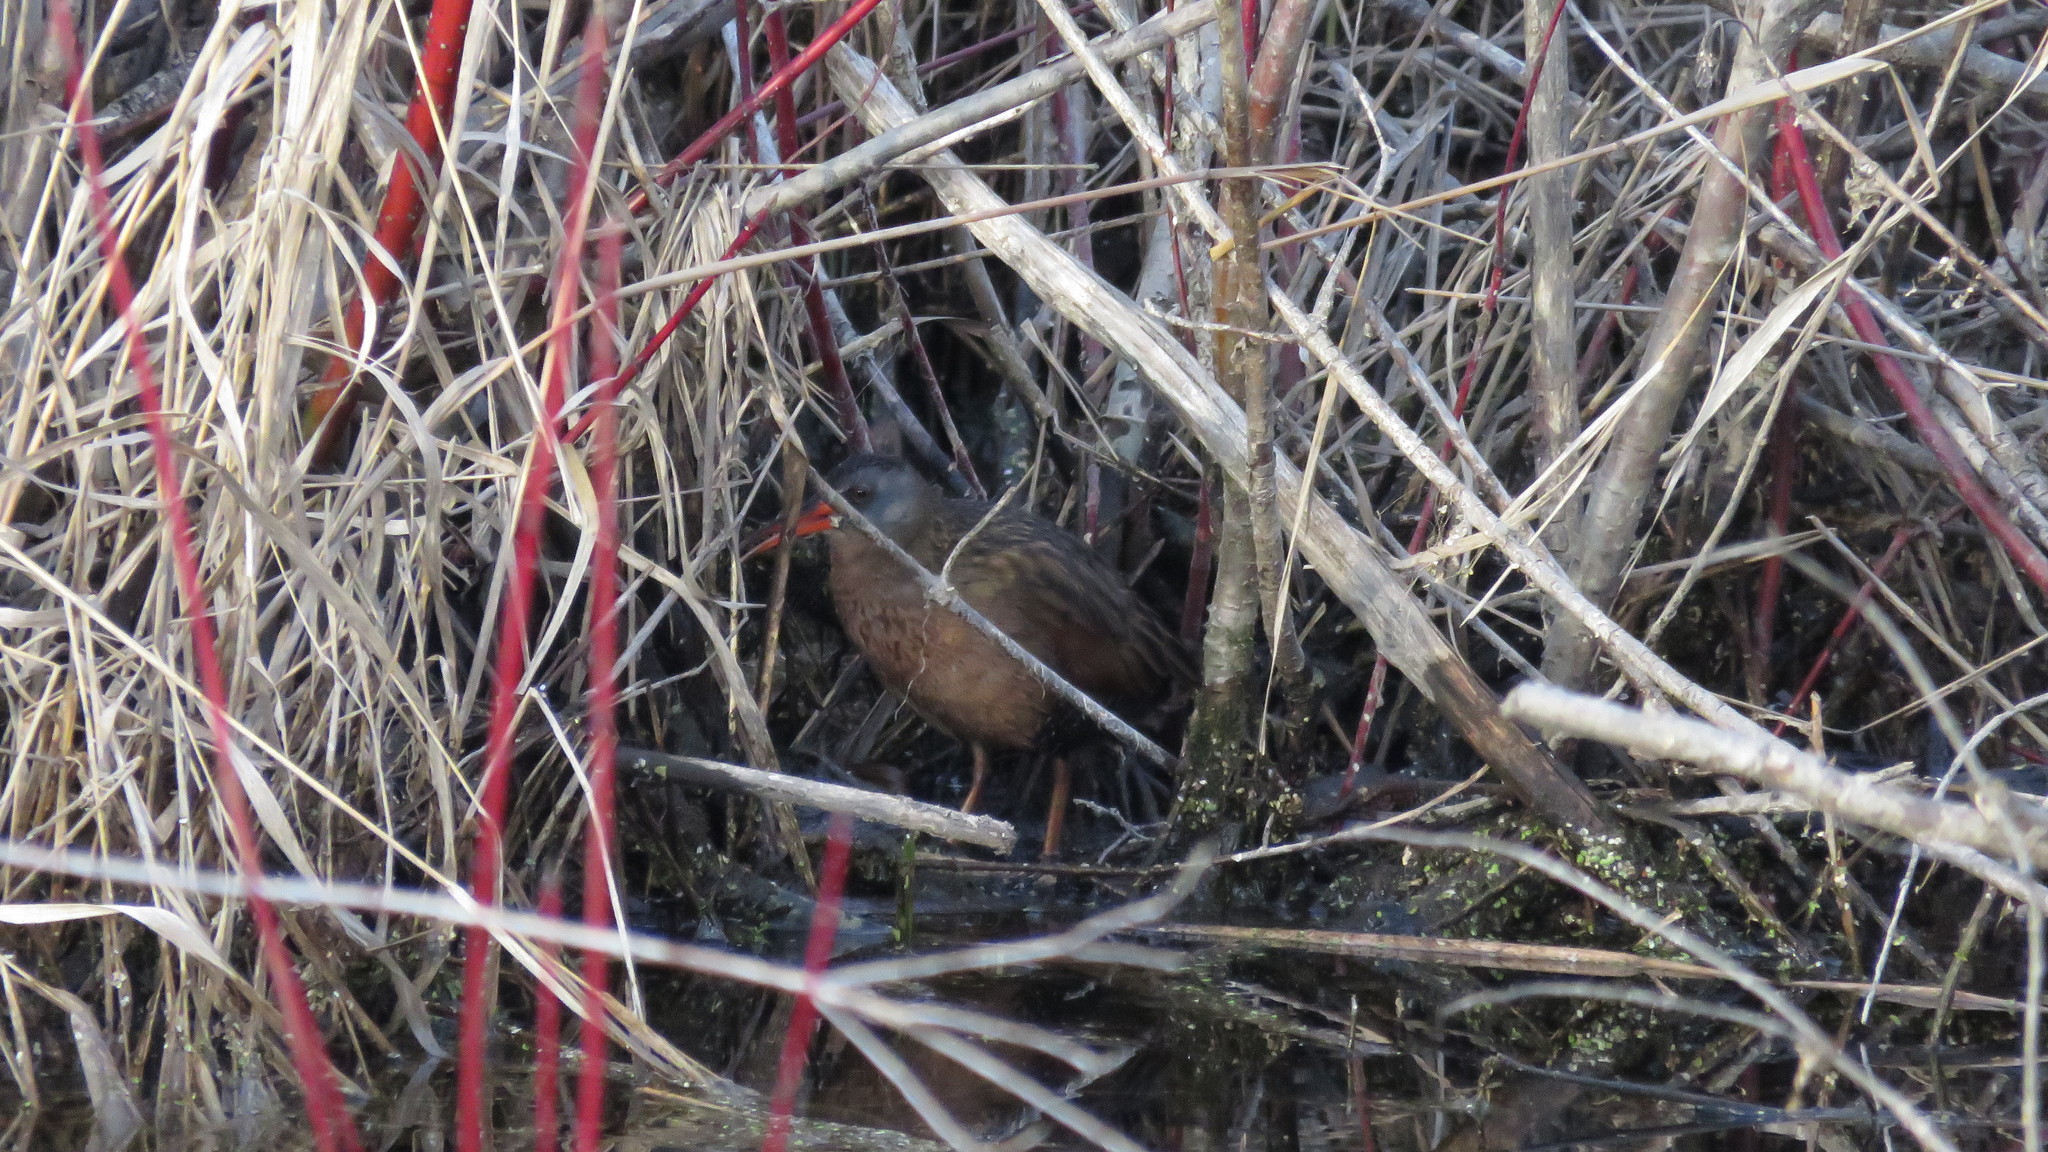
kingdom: Animalia
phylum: Chordata
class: Aves
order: Gruiformes
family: Rallidae
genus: Rallus
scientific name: Rallus limicola
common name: Virginia rail
